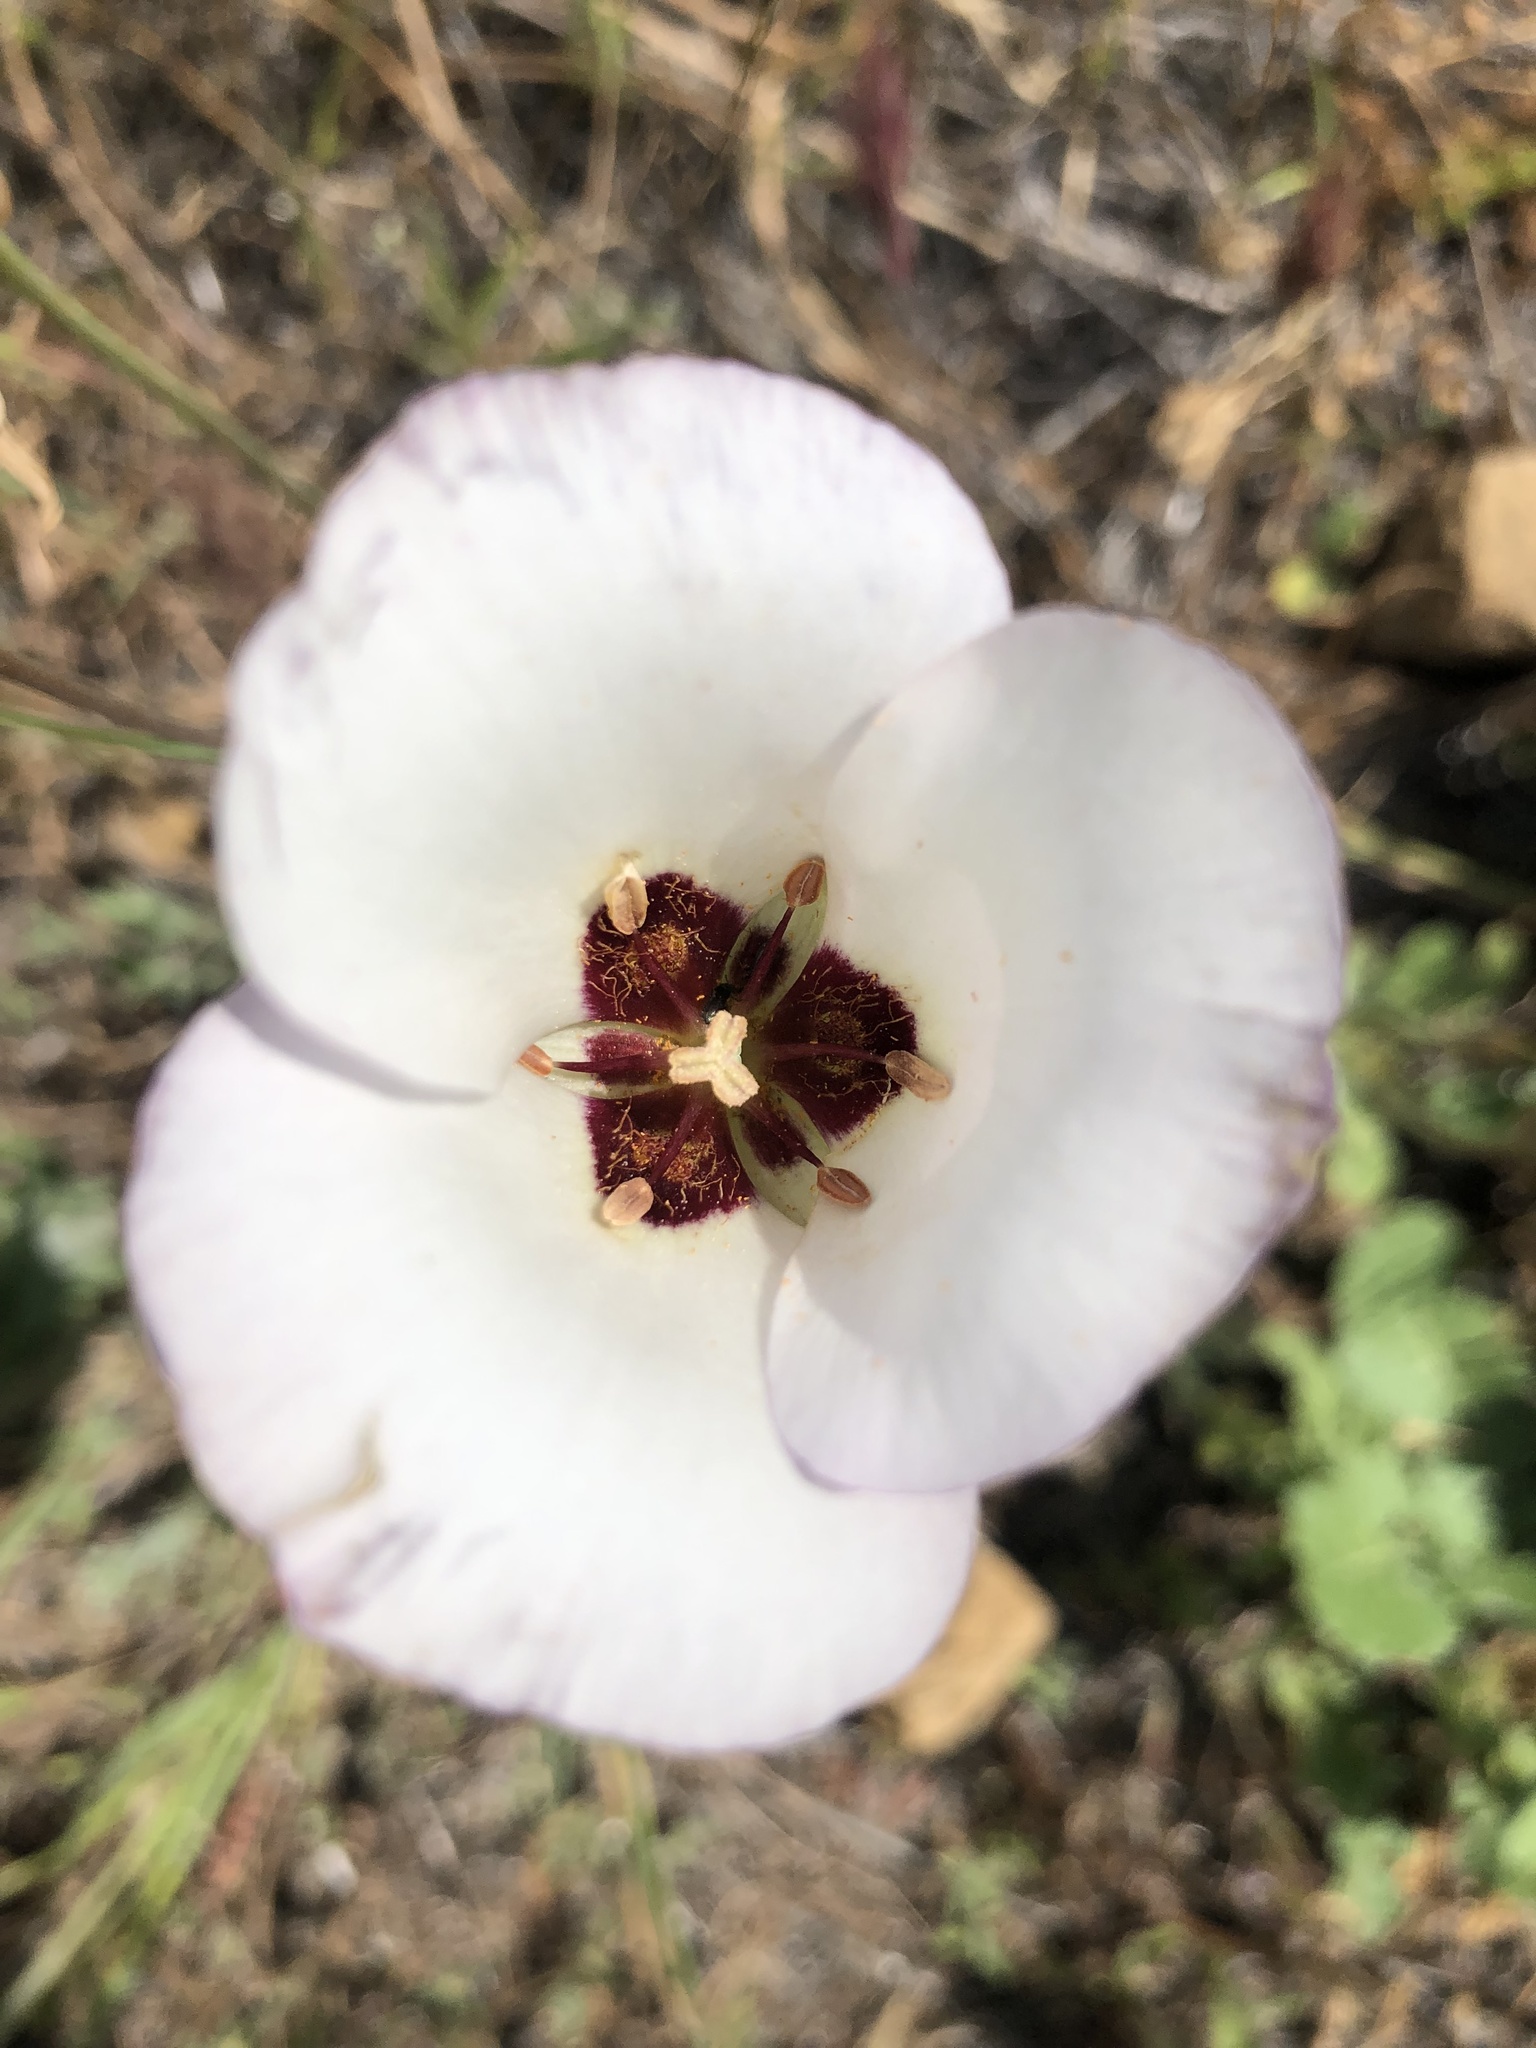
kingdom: Plantae
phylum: Tracheophyta
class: Liliopsida
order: Liliales
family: Liliaceae
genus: Calochortus
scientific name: Calochortus catalinae
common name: Catalina mariposa-lily
